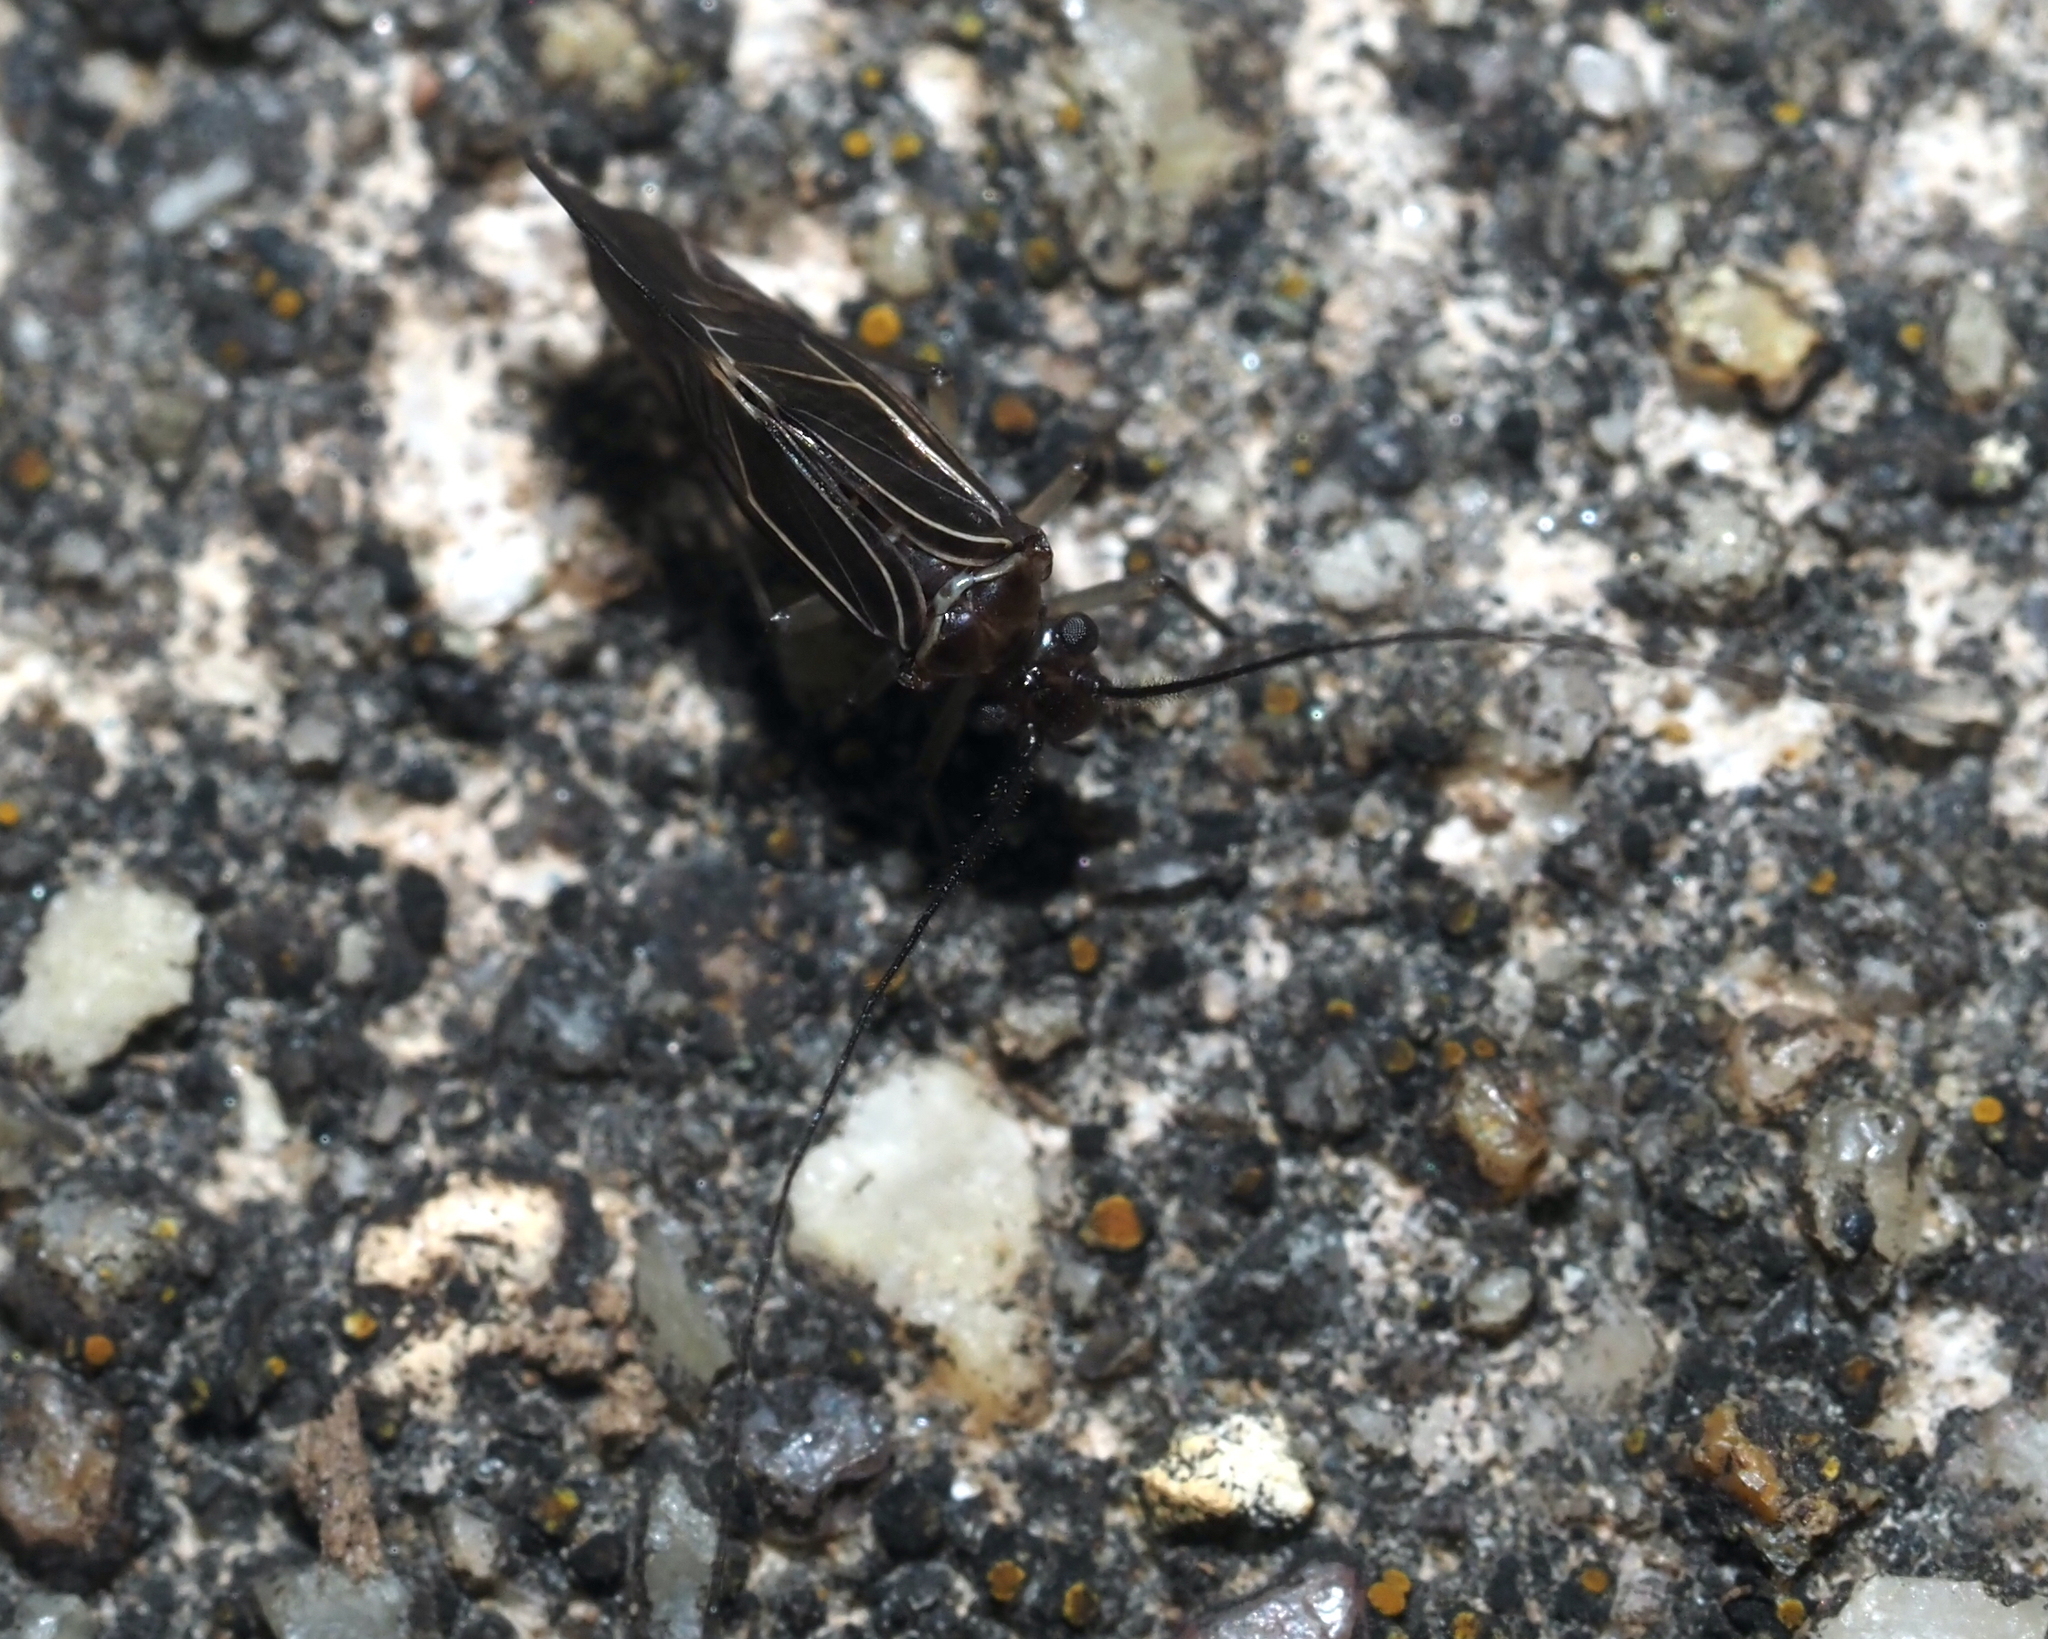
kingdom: Animalia
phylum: Arthropoda
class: Insecta
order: Psocodea
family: Psocidae
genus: Cerastipsocus
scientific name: Cerastipsocus venosus
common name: Tree cattle
